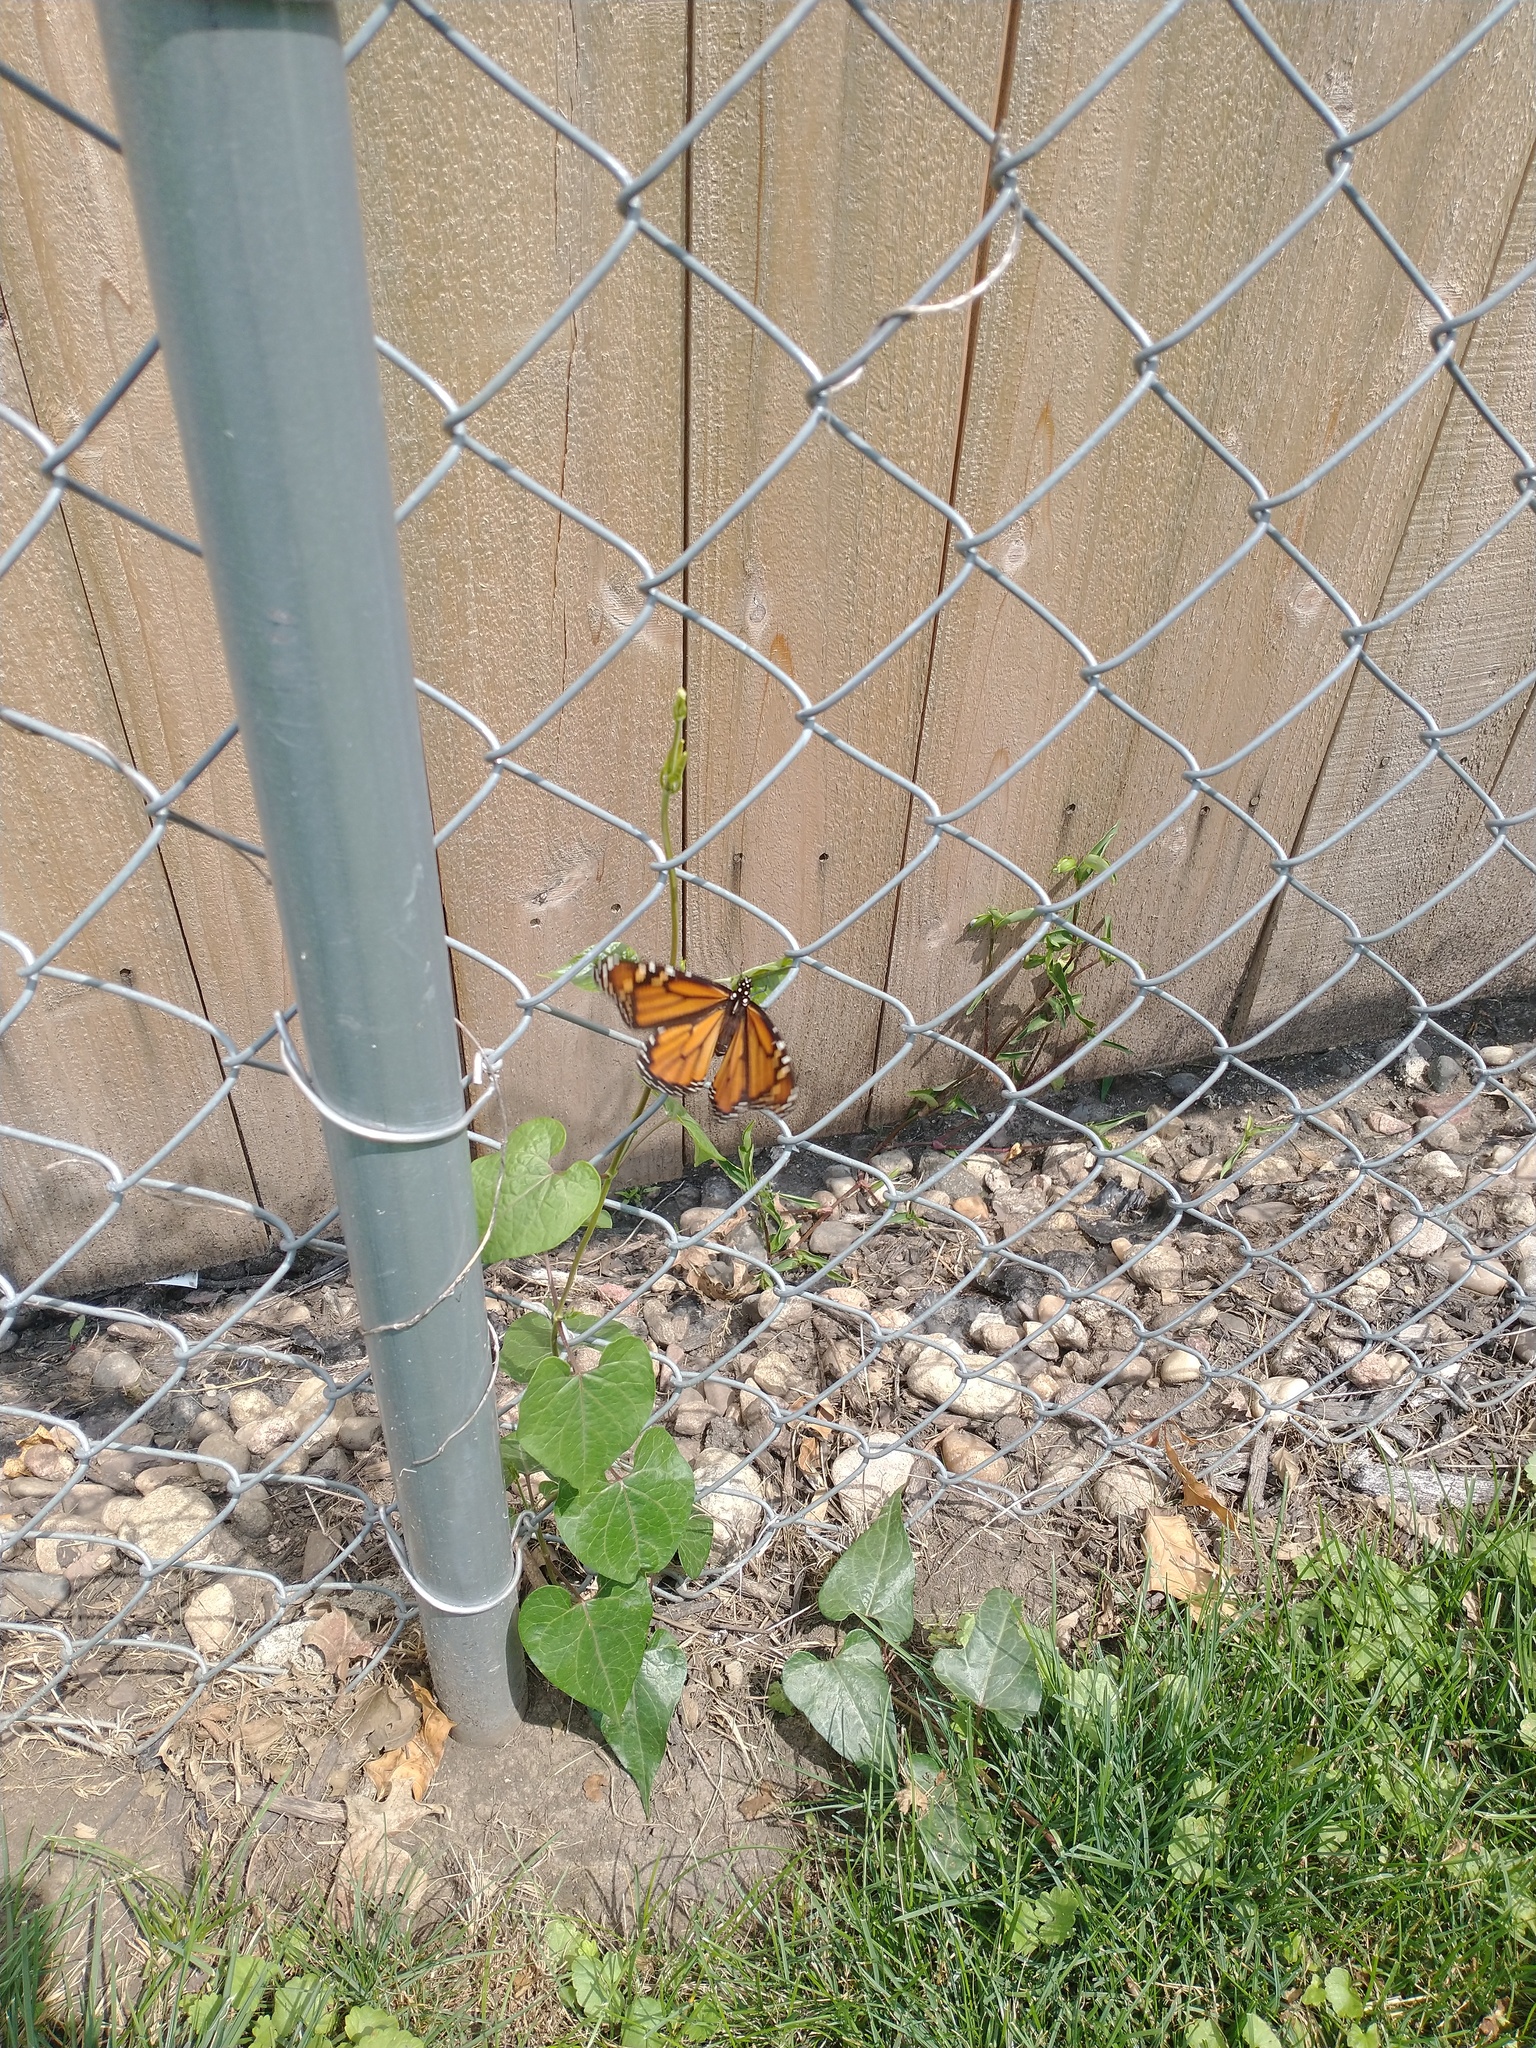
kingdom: Animalia
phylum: Arthropoda
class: Insecta
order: Lepidoptera
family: Nymphalidae
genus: Danaus
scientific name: Danaus plexippus
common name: Monarch
